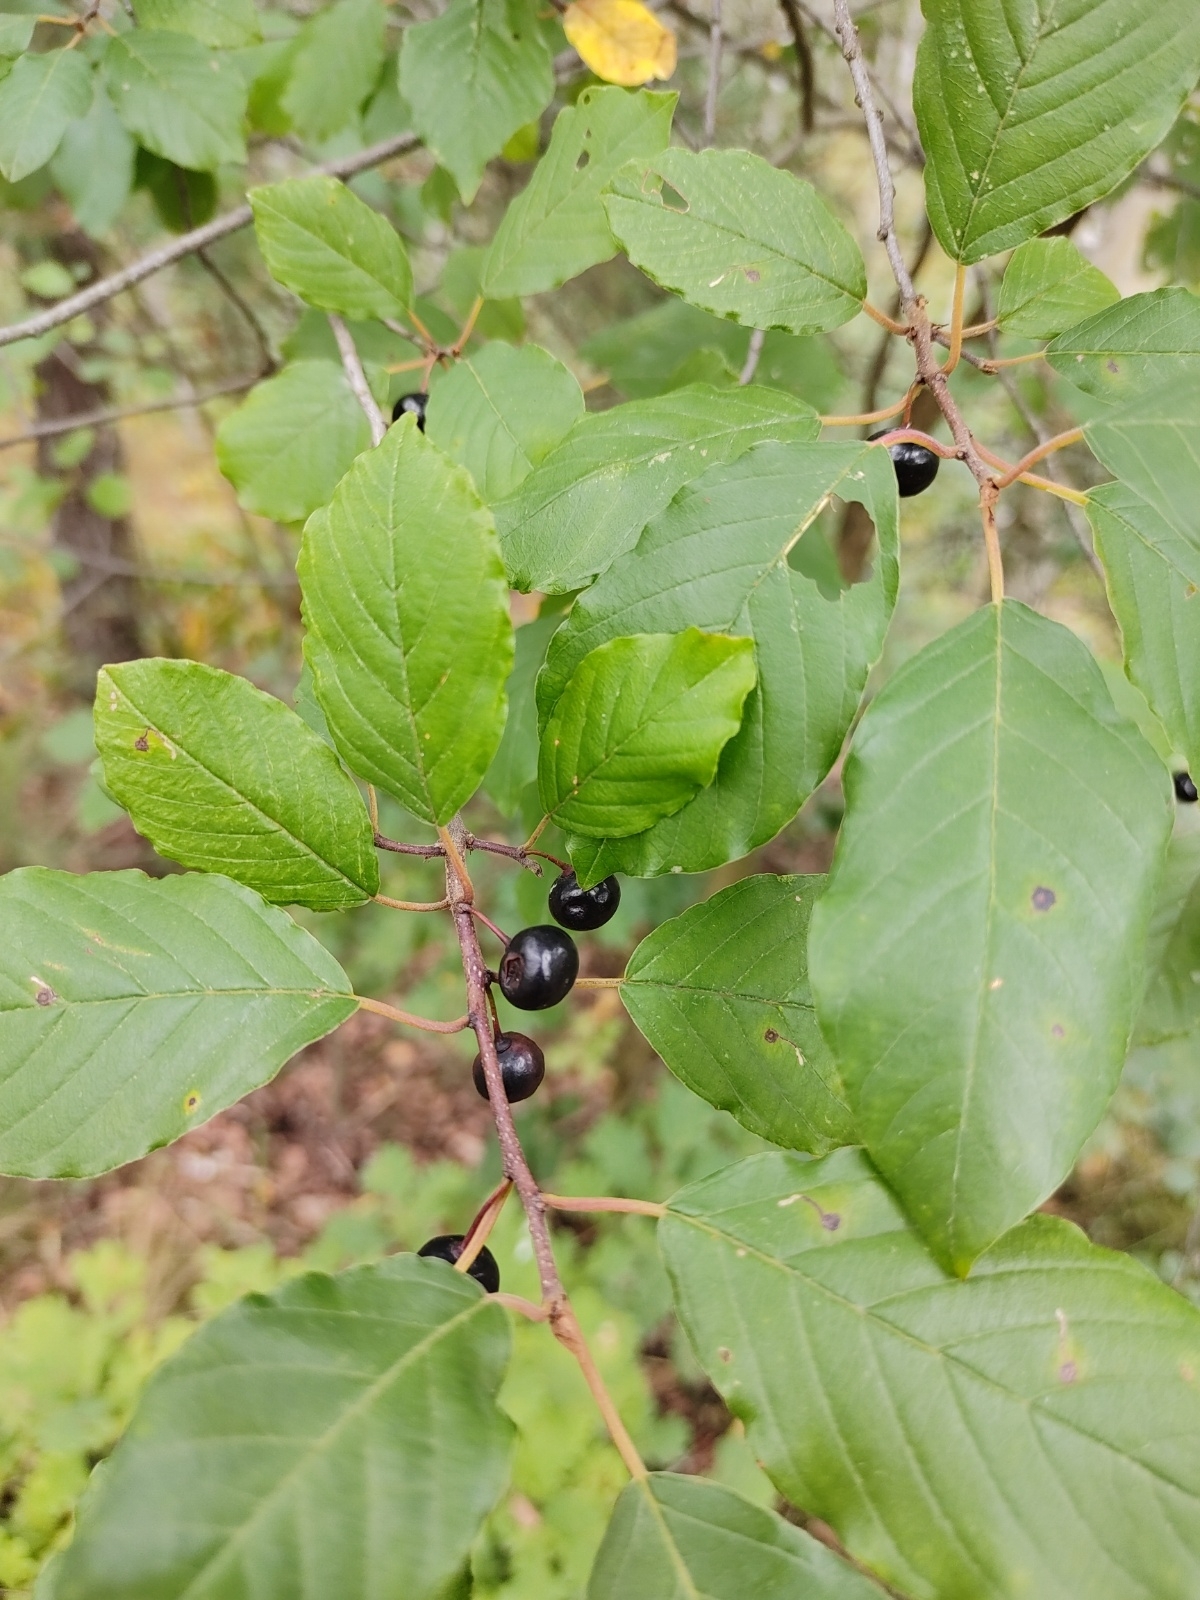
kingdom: Plantae
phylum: Tracheophyta
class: Magnoliopsida
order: Rosales
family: Rhamnaceae
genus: Frangula
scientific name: Frangula alnus
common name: Alder buckthorn
